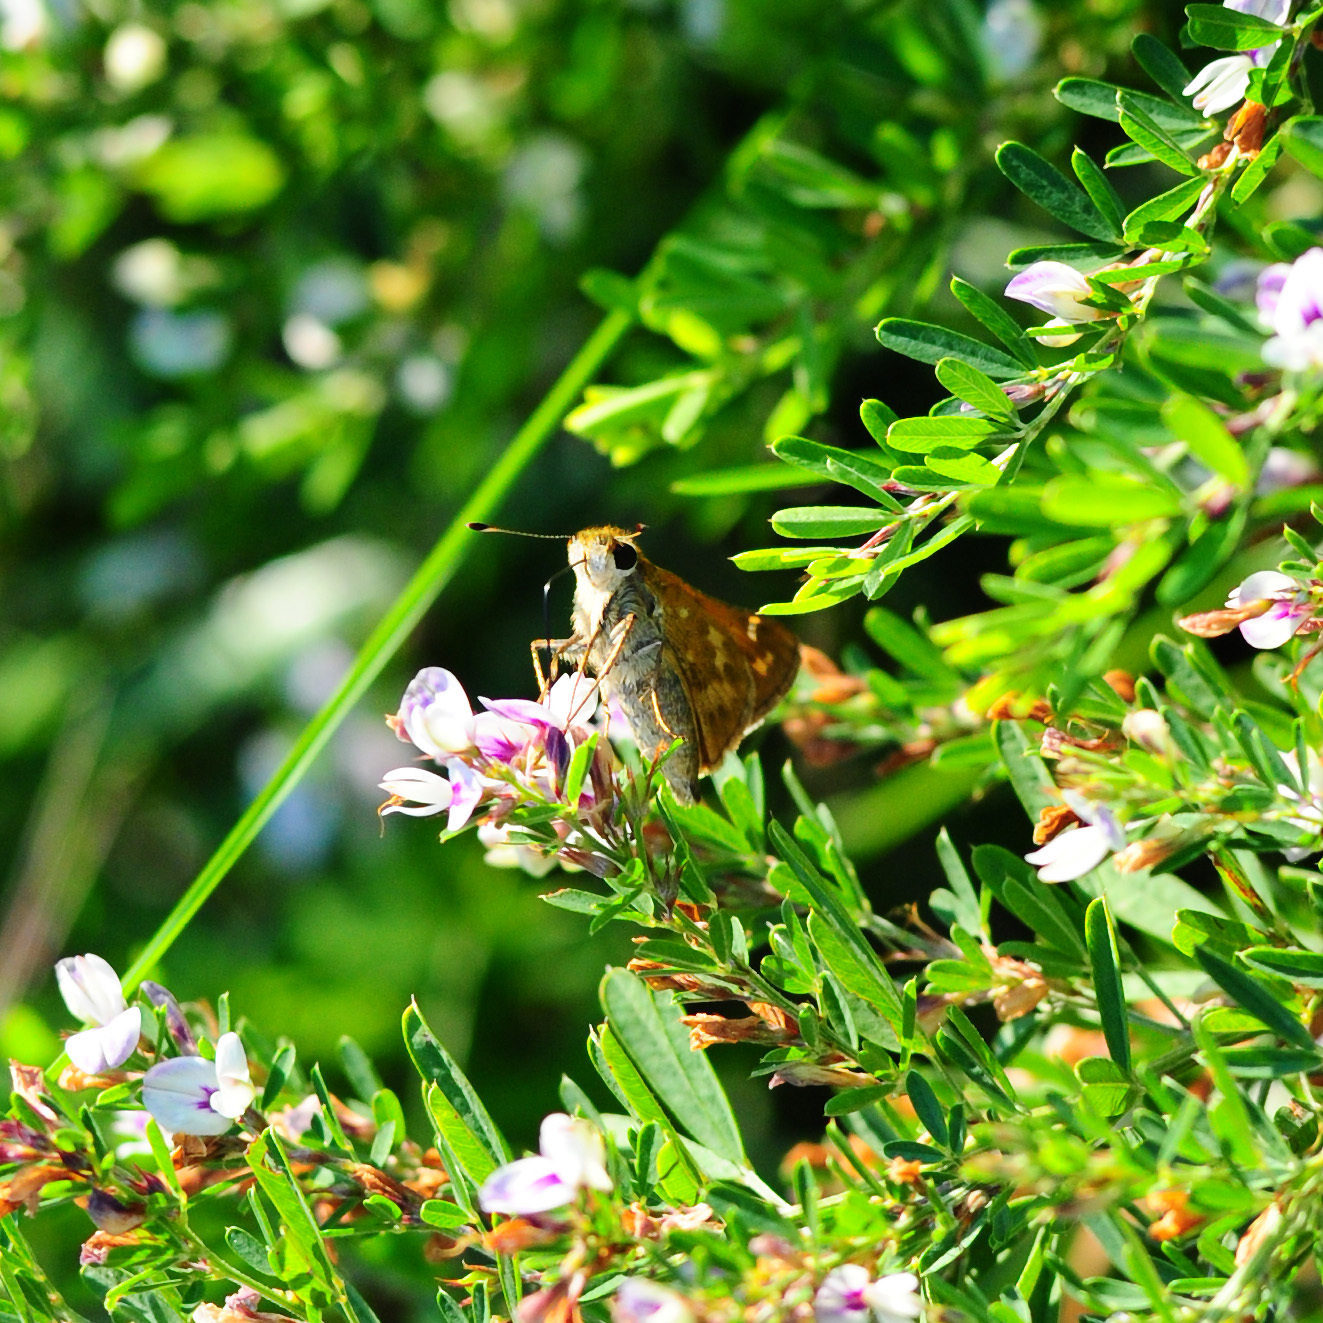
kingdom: Animalia
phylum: Arthropoda
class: Insecta
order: Lepidoptera
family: Hesperiidae
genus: Atalopedes
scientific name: Atalopedes
